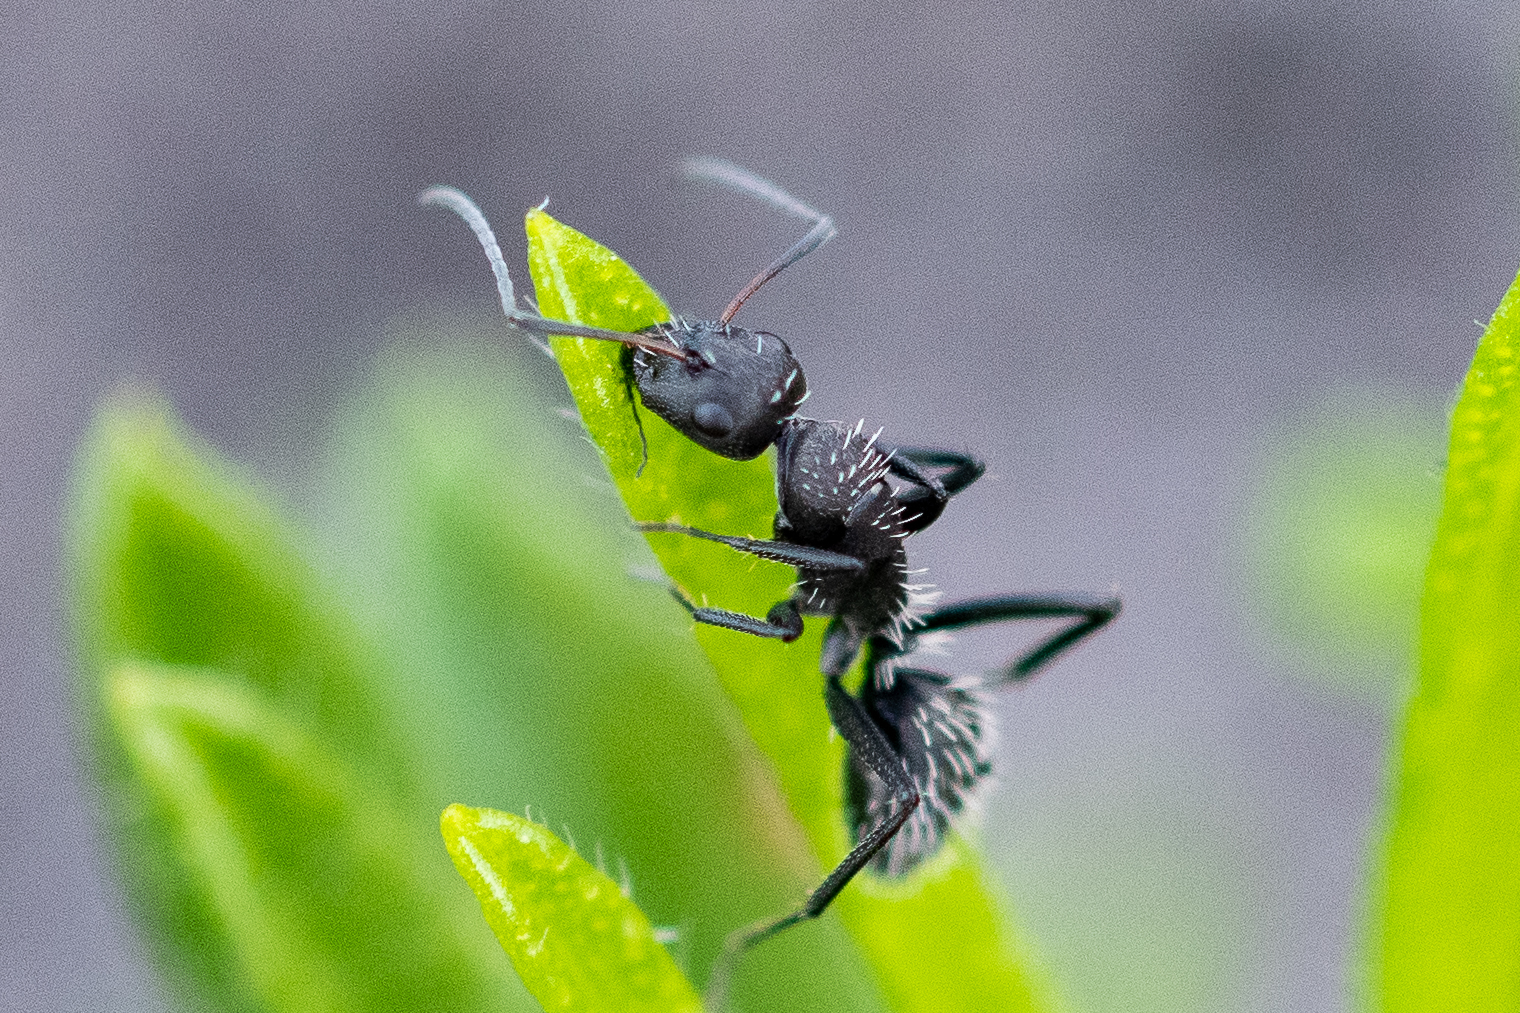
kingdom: Animalia
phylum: Arthropoda
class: Insecta
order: Hymenoptera
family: Formicidae
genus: Camponotus
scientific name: Camponotus niveosetosus
